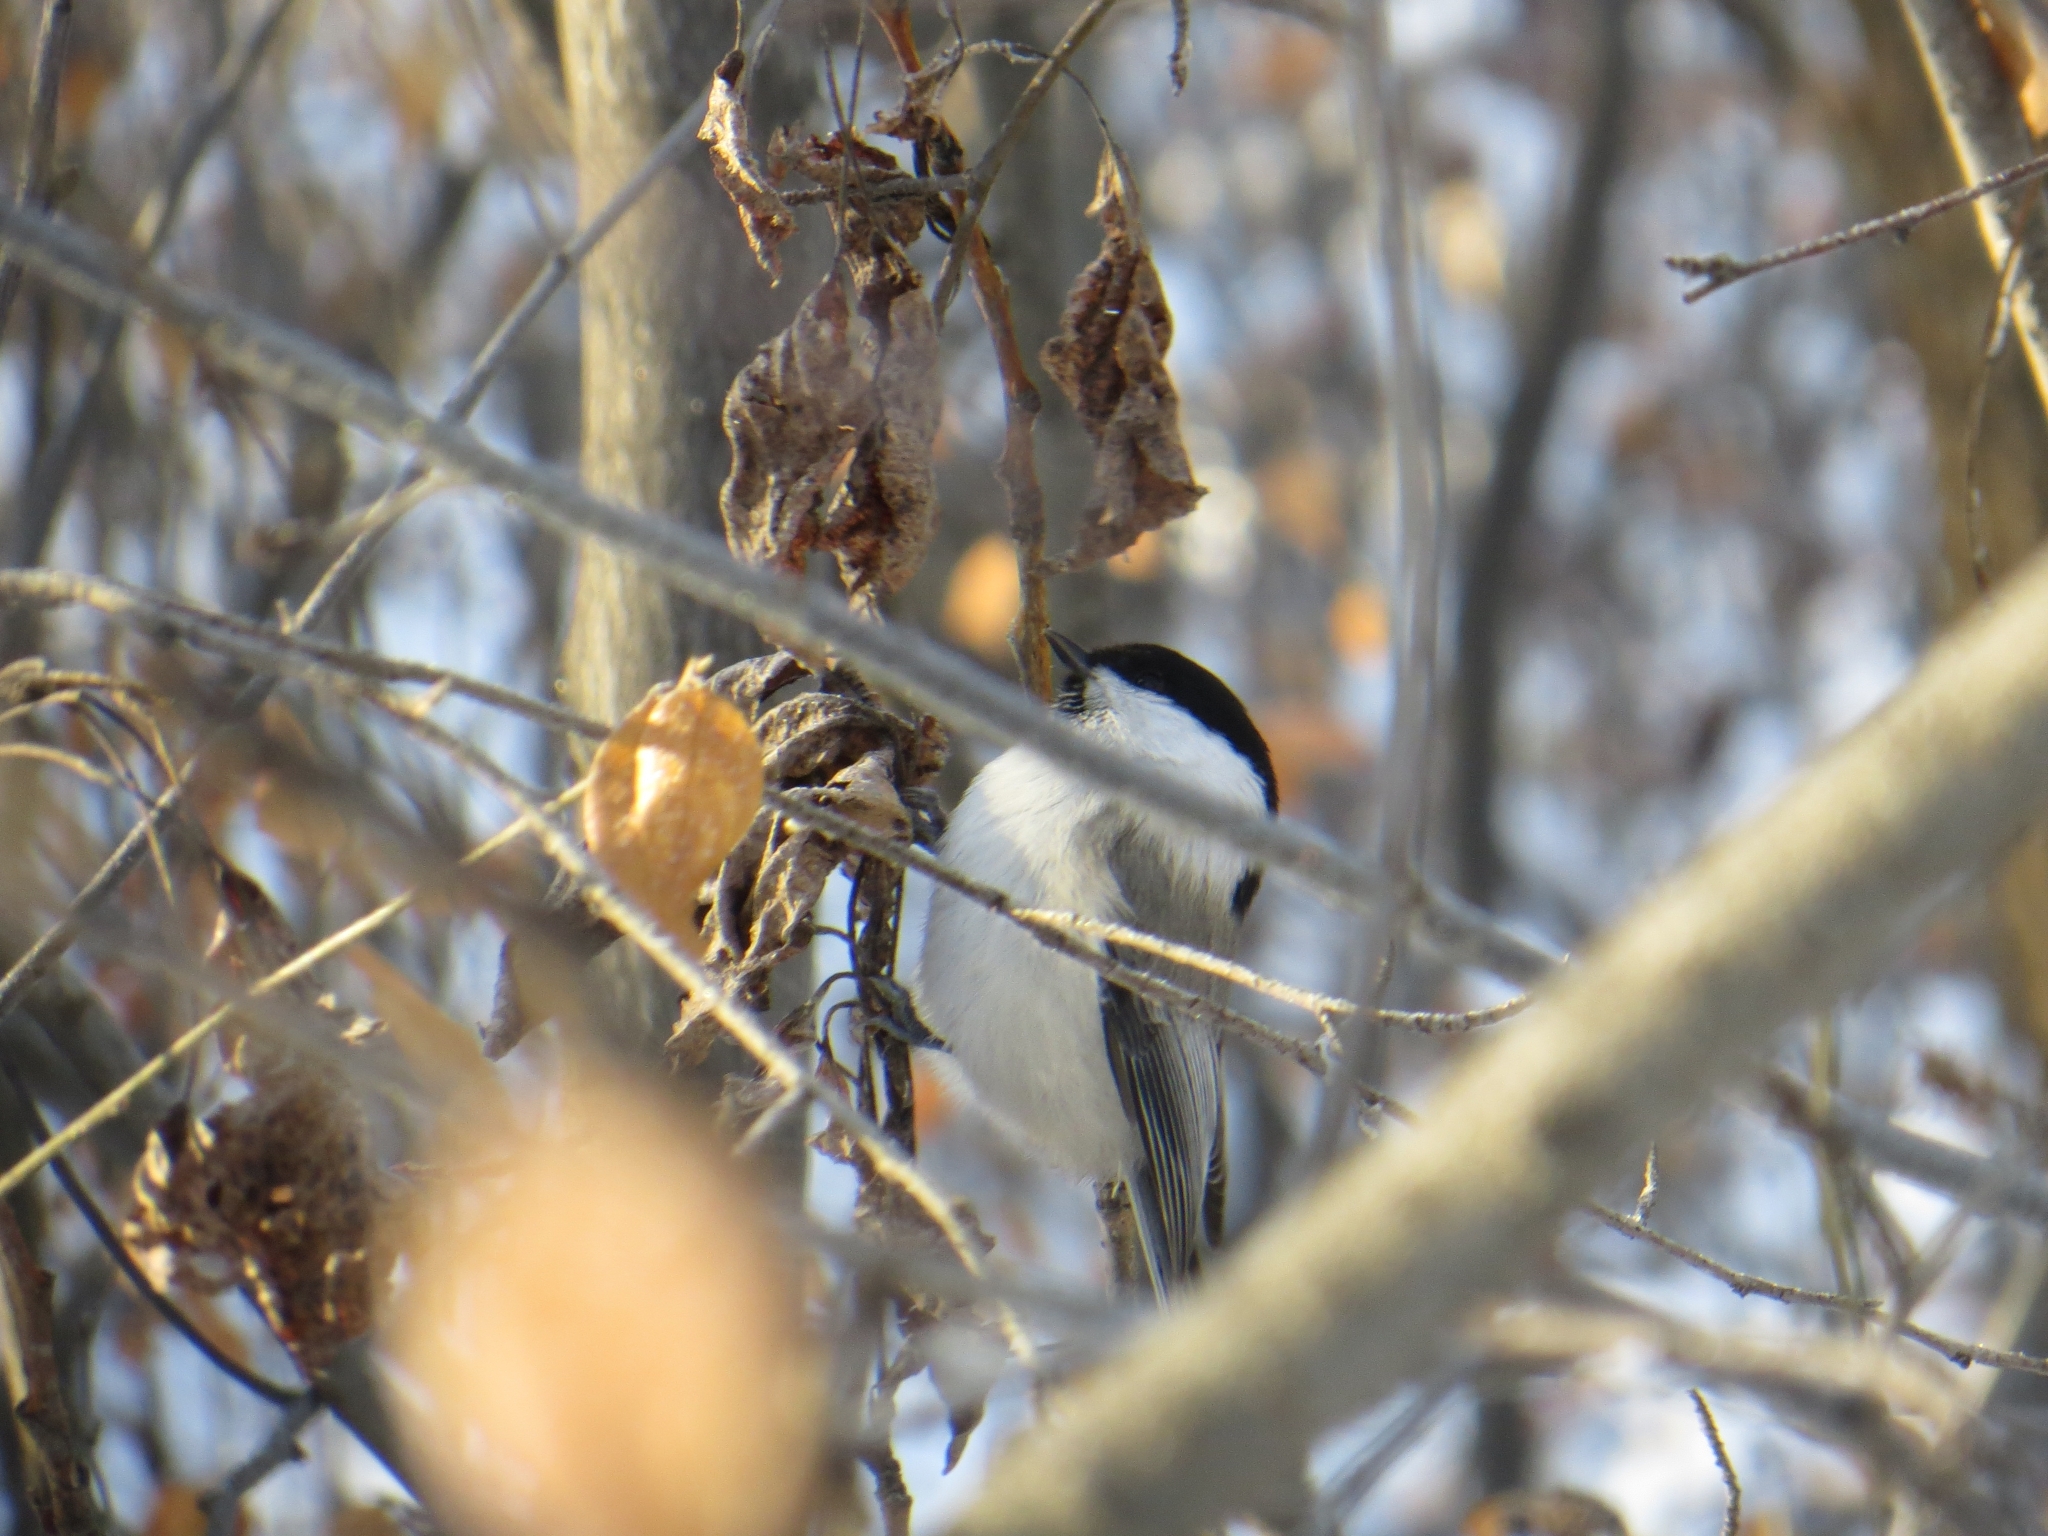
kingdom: Animalia
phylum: Chordata
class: Aves
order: Passeriformes
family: Paridae
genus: Poecile
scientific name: Poecile montanus
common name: Willow tit
